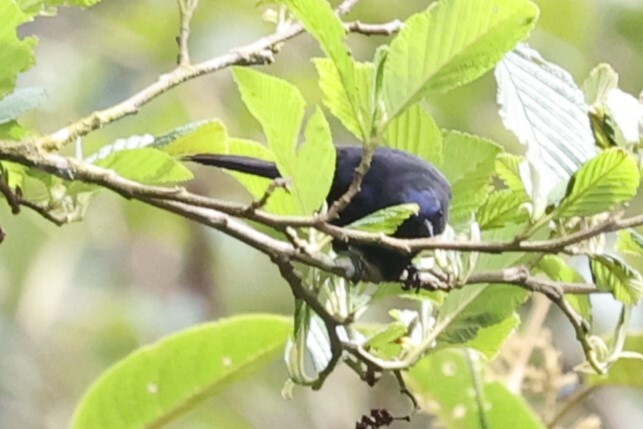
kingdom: Animalia
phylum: Chordata
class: Aves
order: Passeriformes
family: Thraupidae
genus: Conirostrum
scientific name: Conirostrum albifrons
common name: Capped conebill
